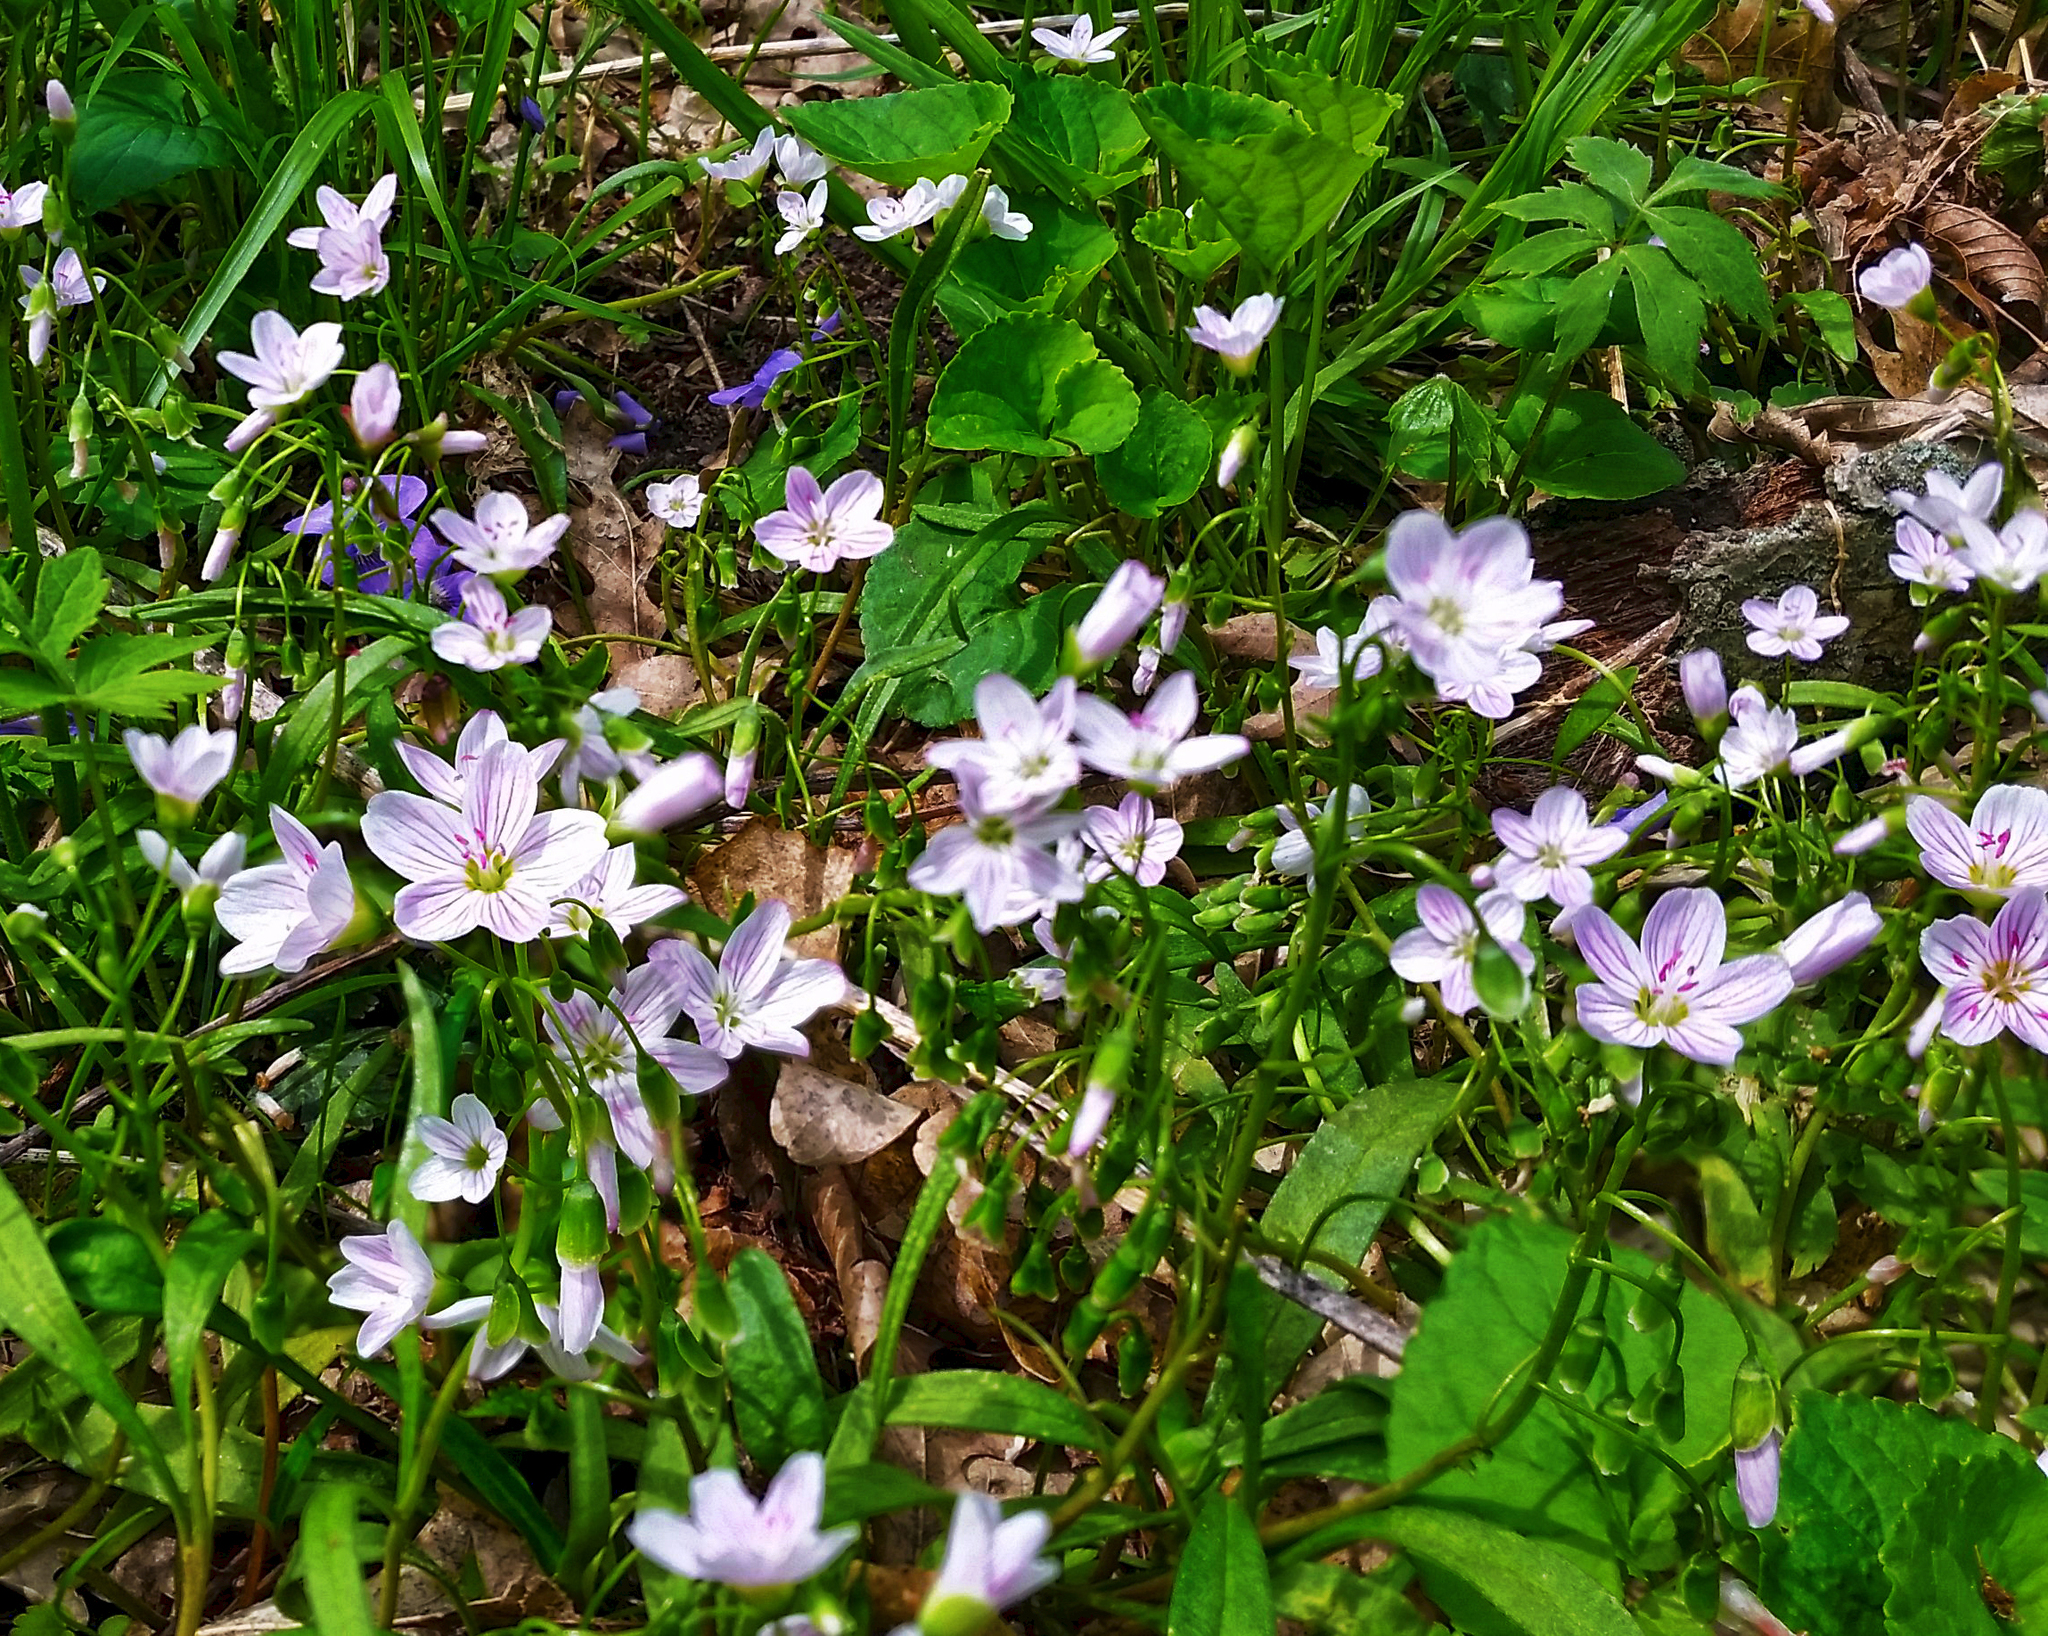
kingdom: Plantae
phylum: Tracheophyta
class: Magnoliopsida
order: Caryophyllales
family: Montiaceae
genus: Claytonia
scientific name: Claytonia virginica
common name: Virginia springbeauty
